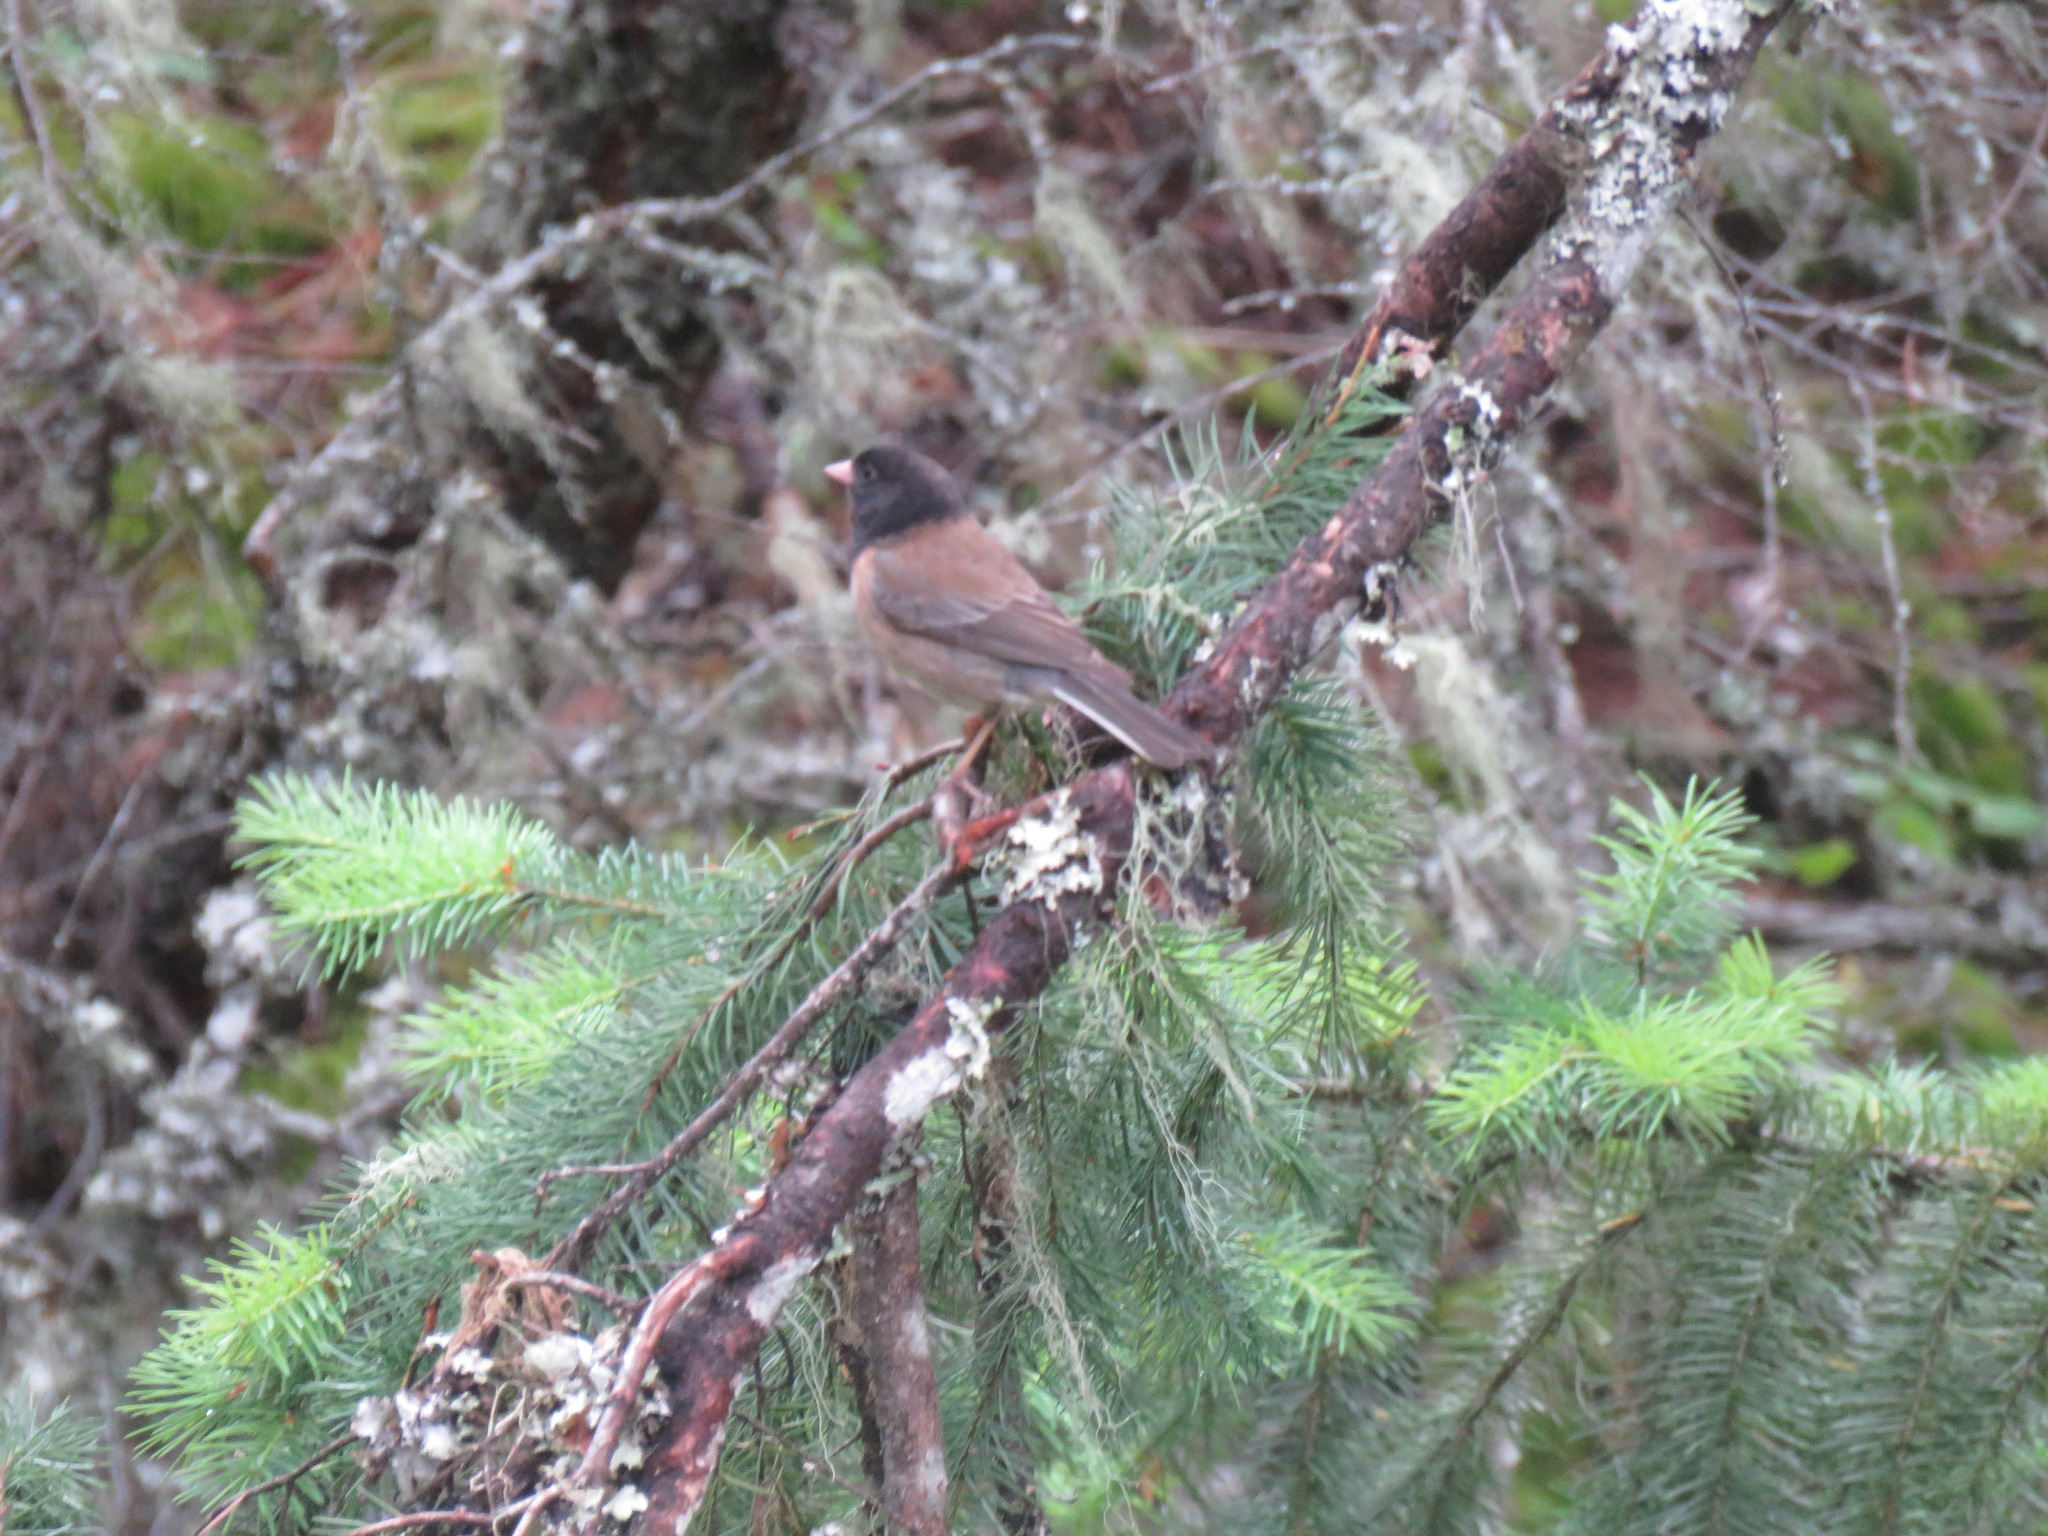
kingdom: Animalia
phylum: Chordata
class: Aves
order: Passeriformes
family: Passerellidae
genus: Junco
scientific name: Junco hyemalis
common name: Dark-eyed junco
